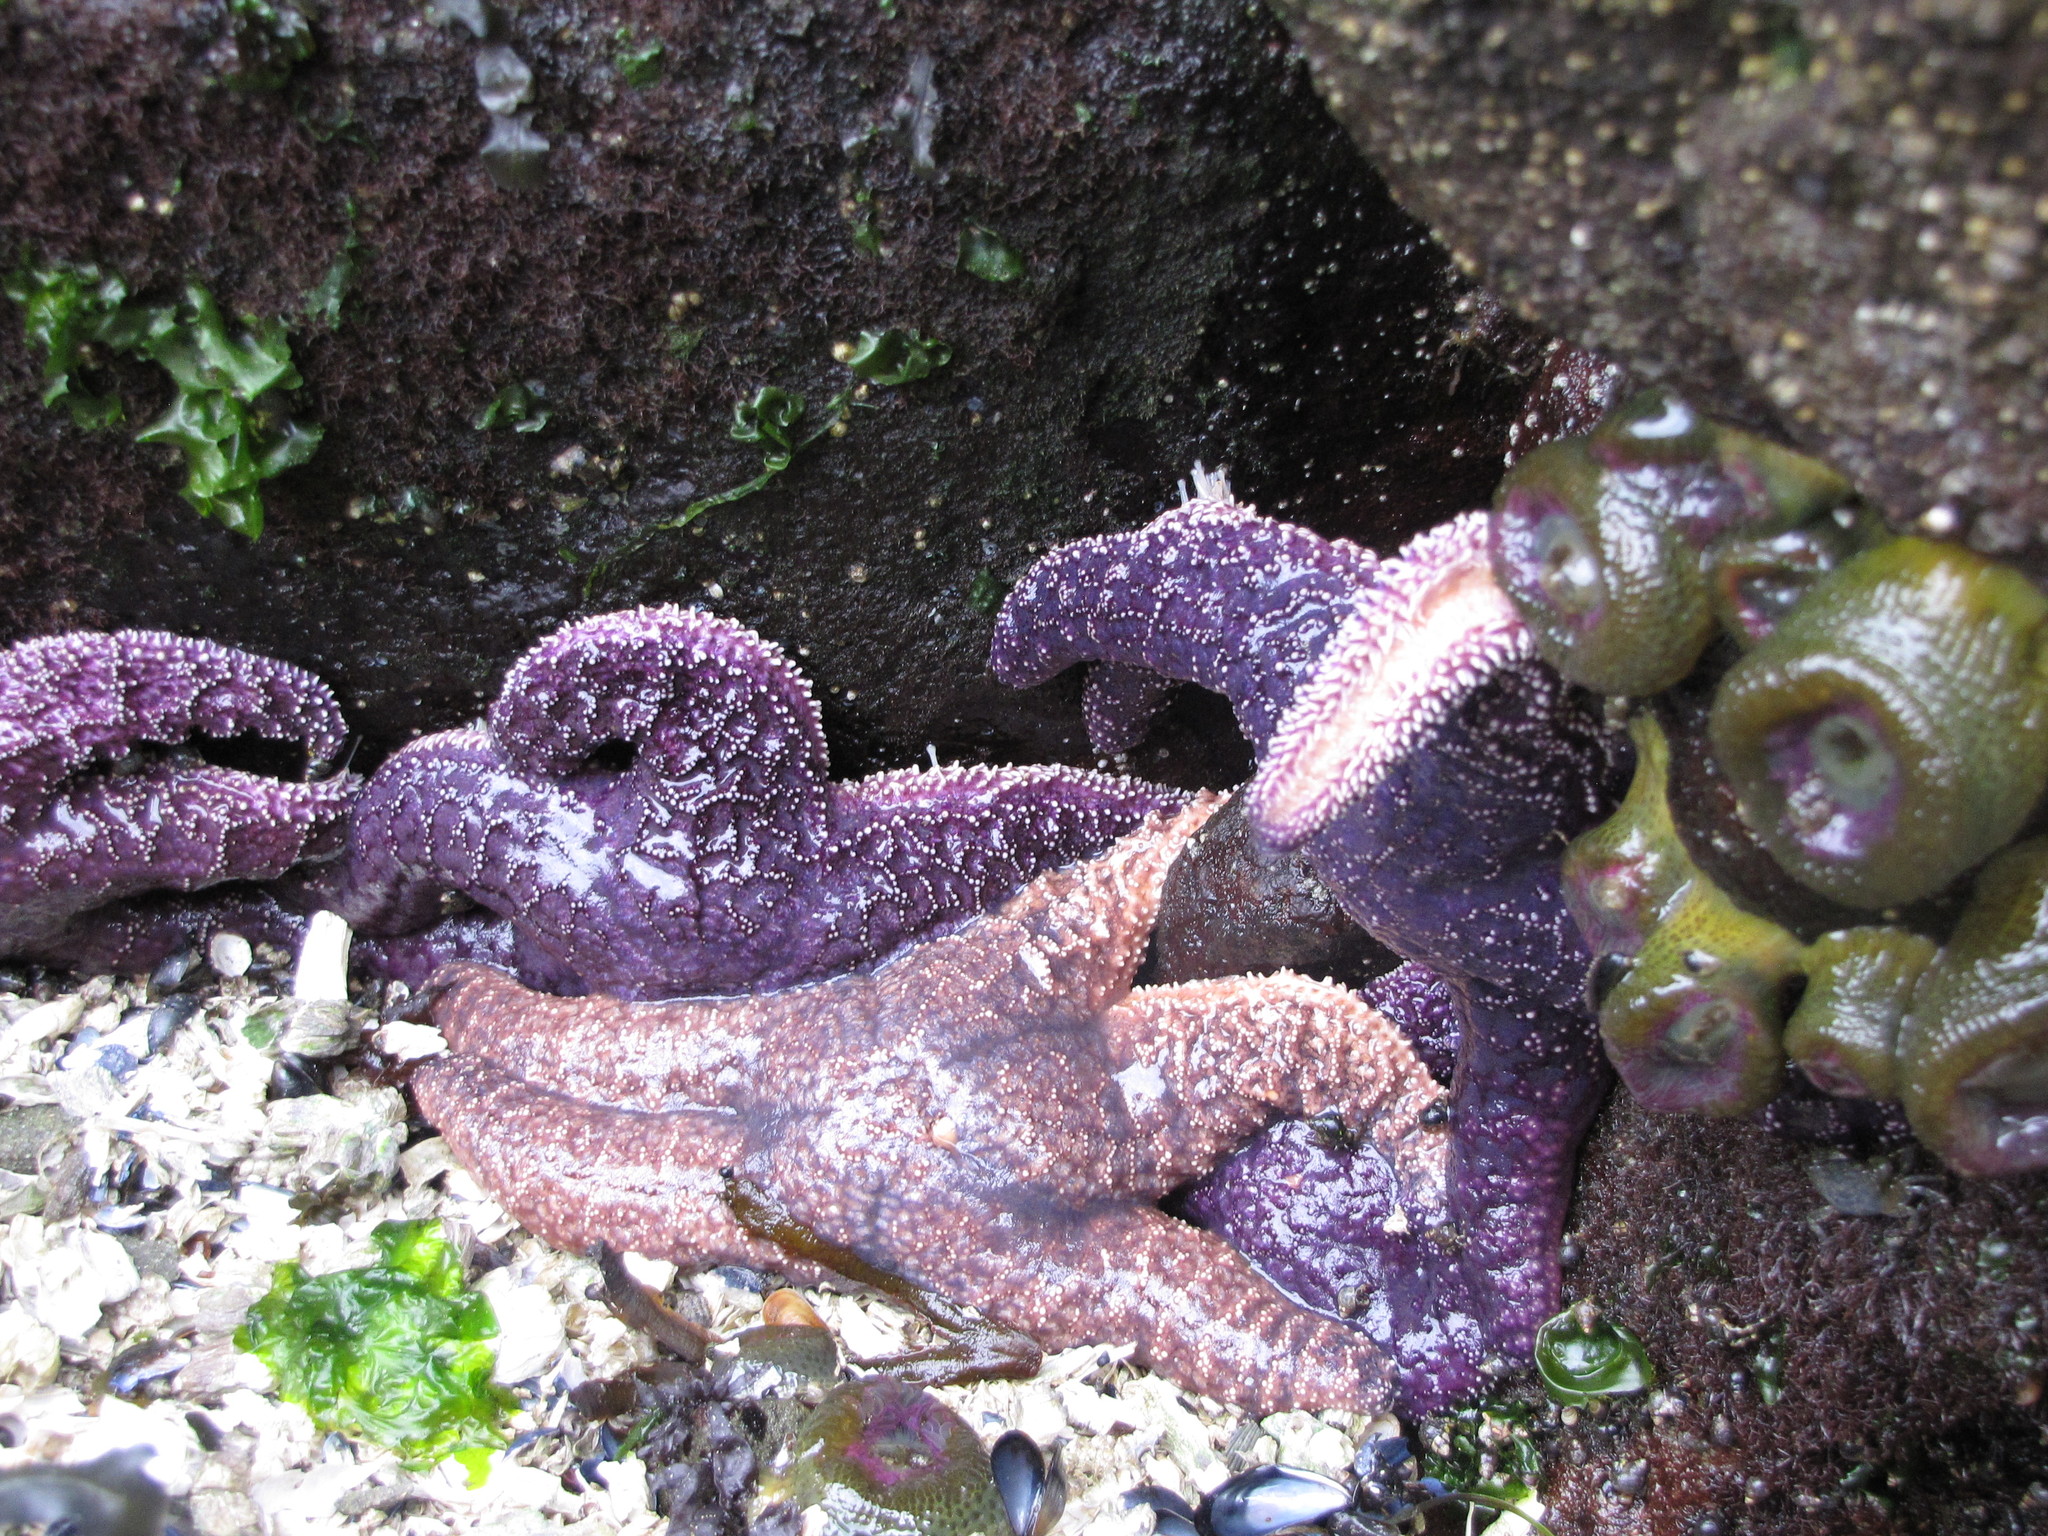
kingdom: Animalia
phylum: Echinodermata
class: Asteroidea
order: Forcipulatida
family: Asteriidae
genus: Pisaster
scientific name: Pisaster ochraceus
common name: Ochre stars
